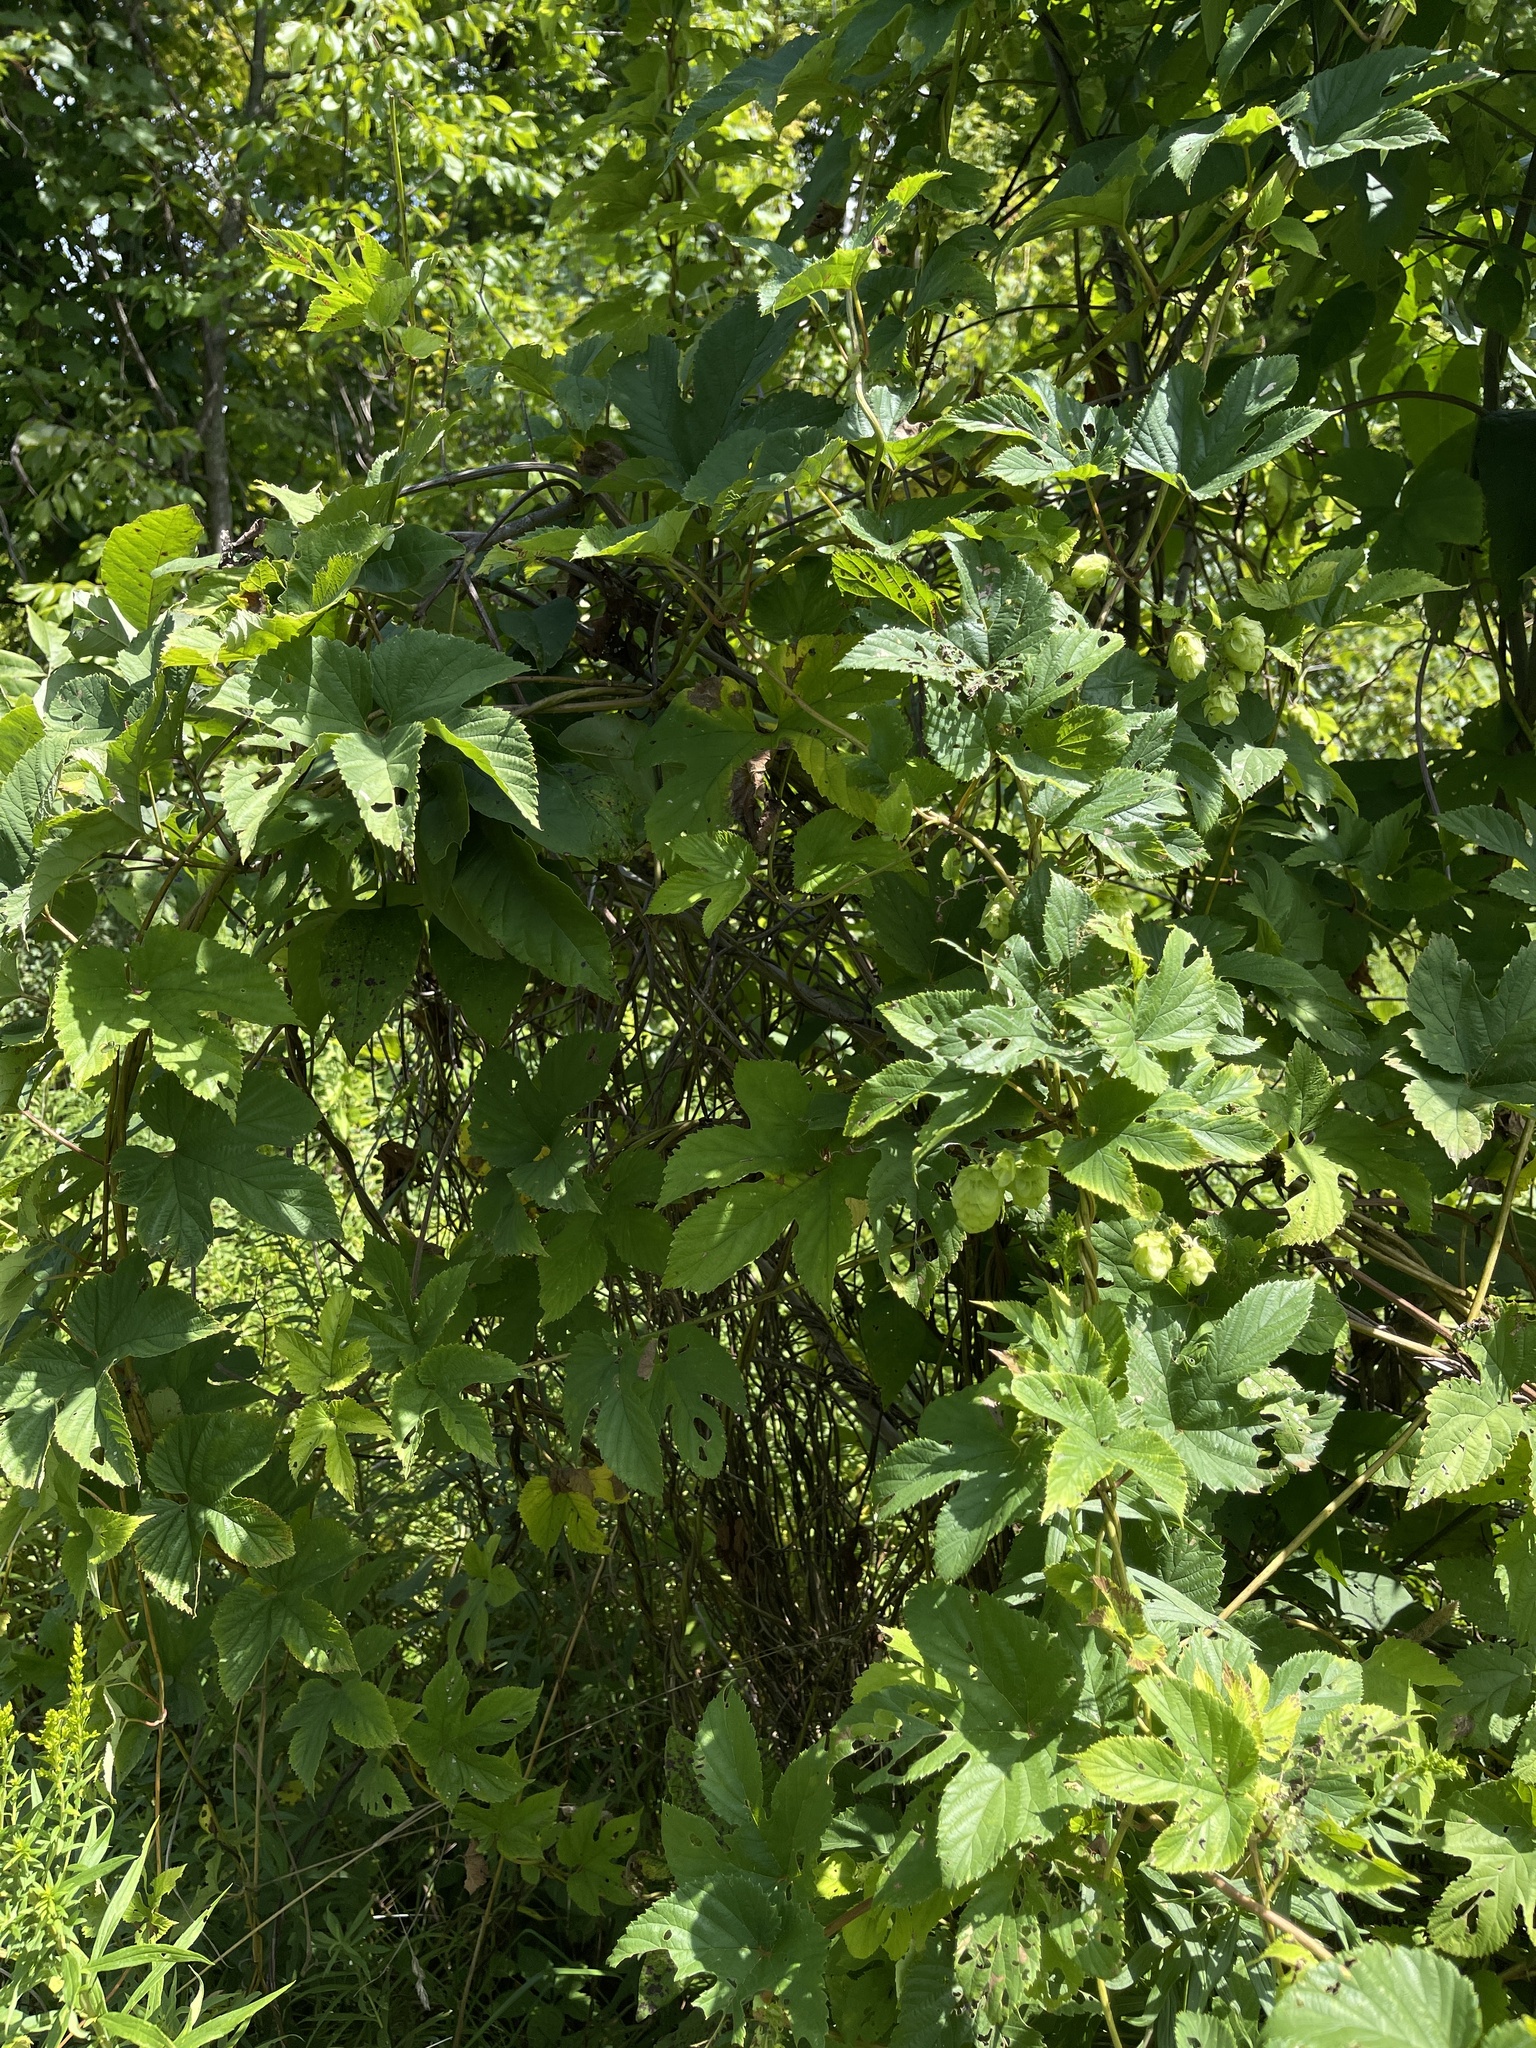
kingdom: Plantae
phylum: Tracheophyta
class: Magnoliopsida
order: Rosales
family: Cannabaceae
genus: Humulus
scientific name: Humulus lupulus
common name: Hop
